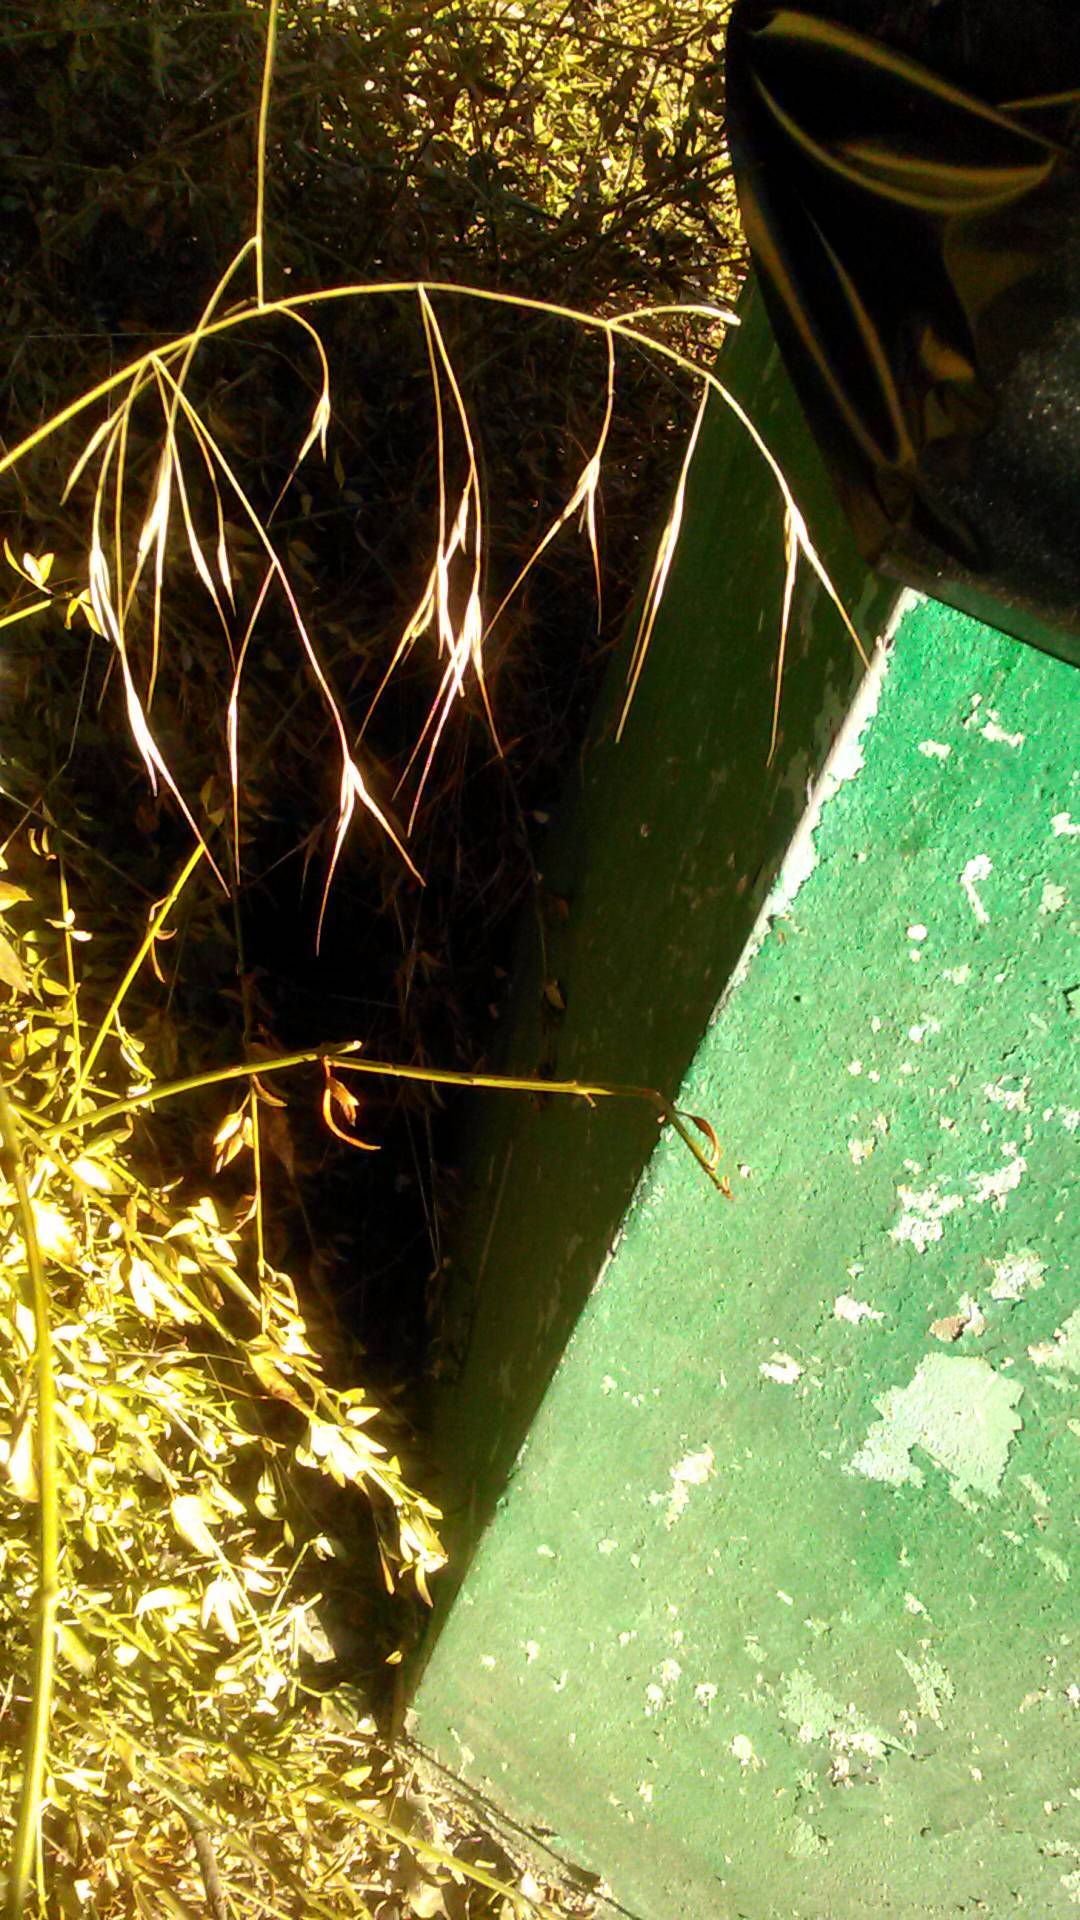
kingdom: Plantae
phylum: Tracheophyta
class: Liliopsida
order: Poales
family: Poaceae
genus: Bromus
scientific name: Bromus sterilis
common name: Poverty brome
